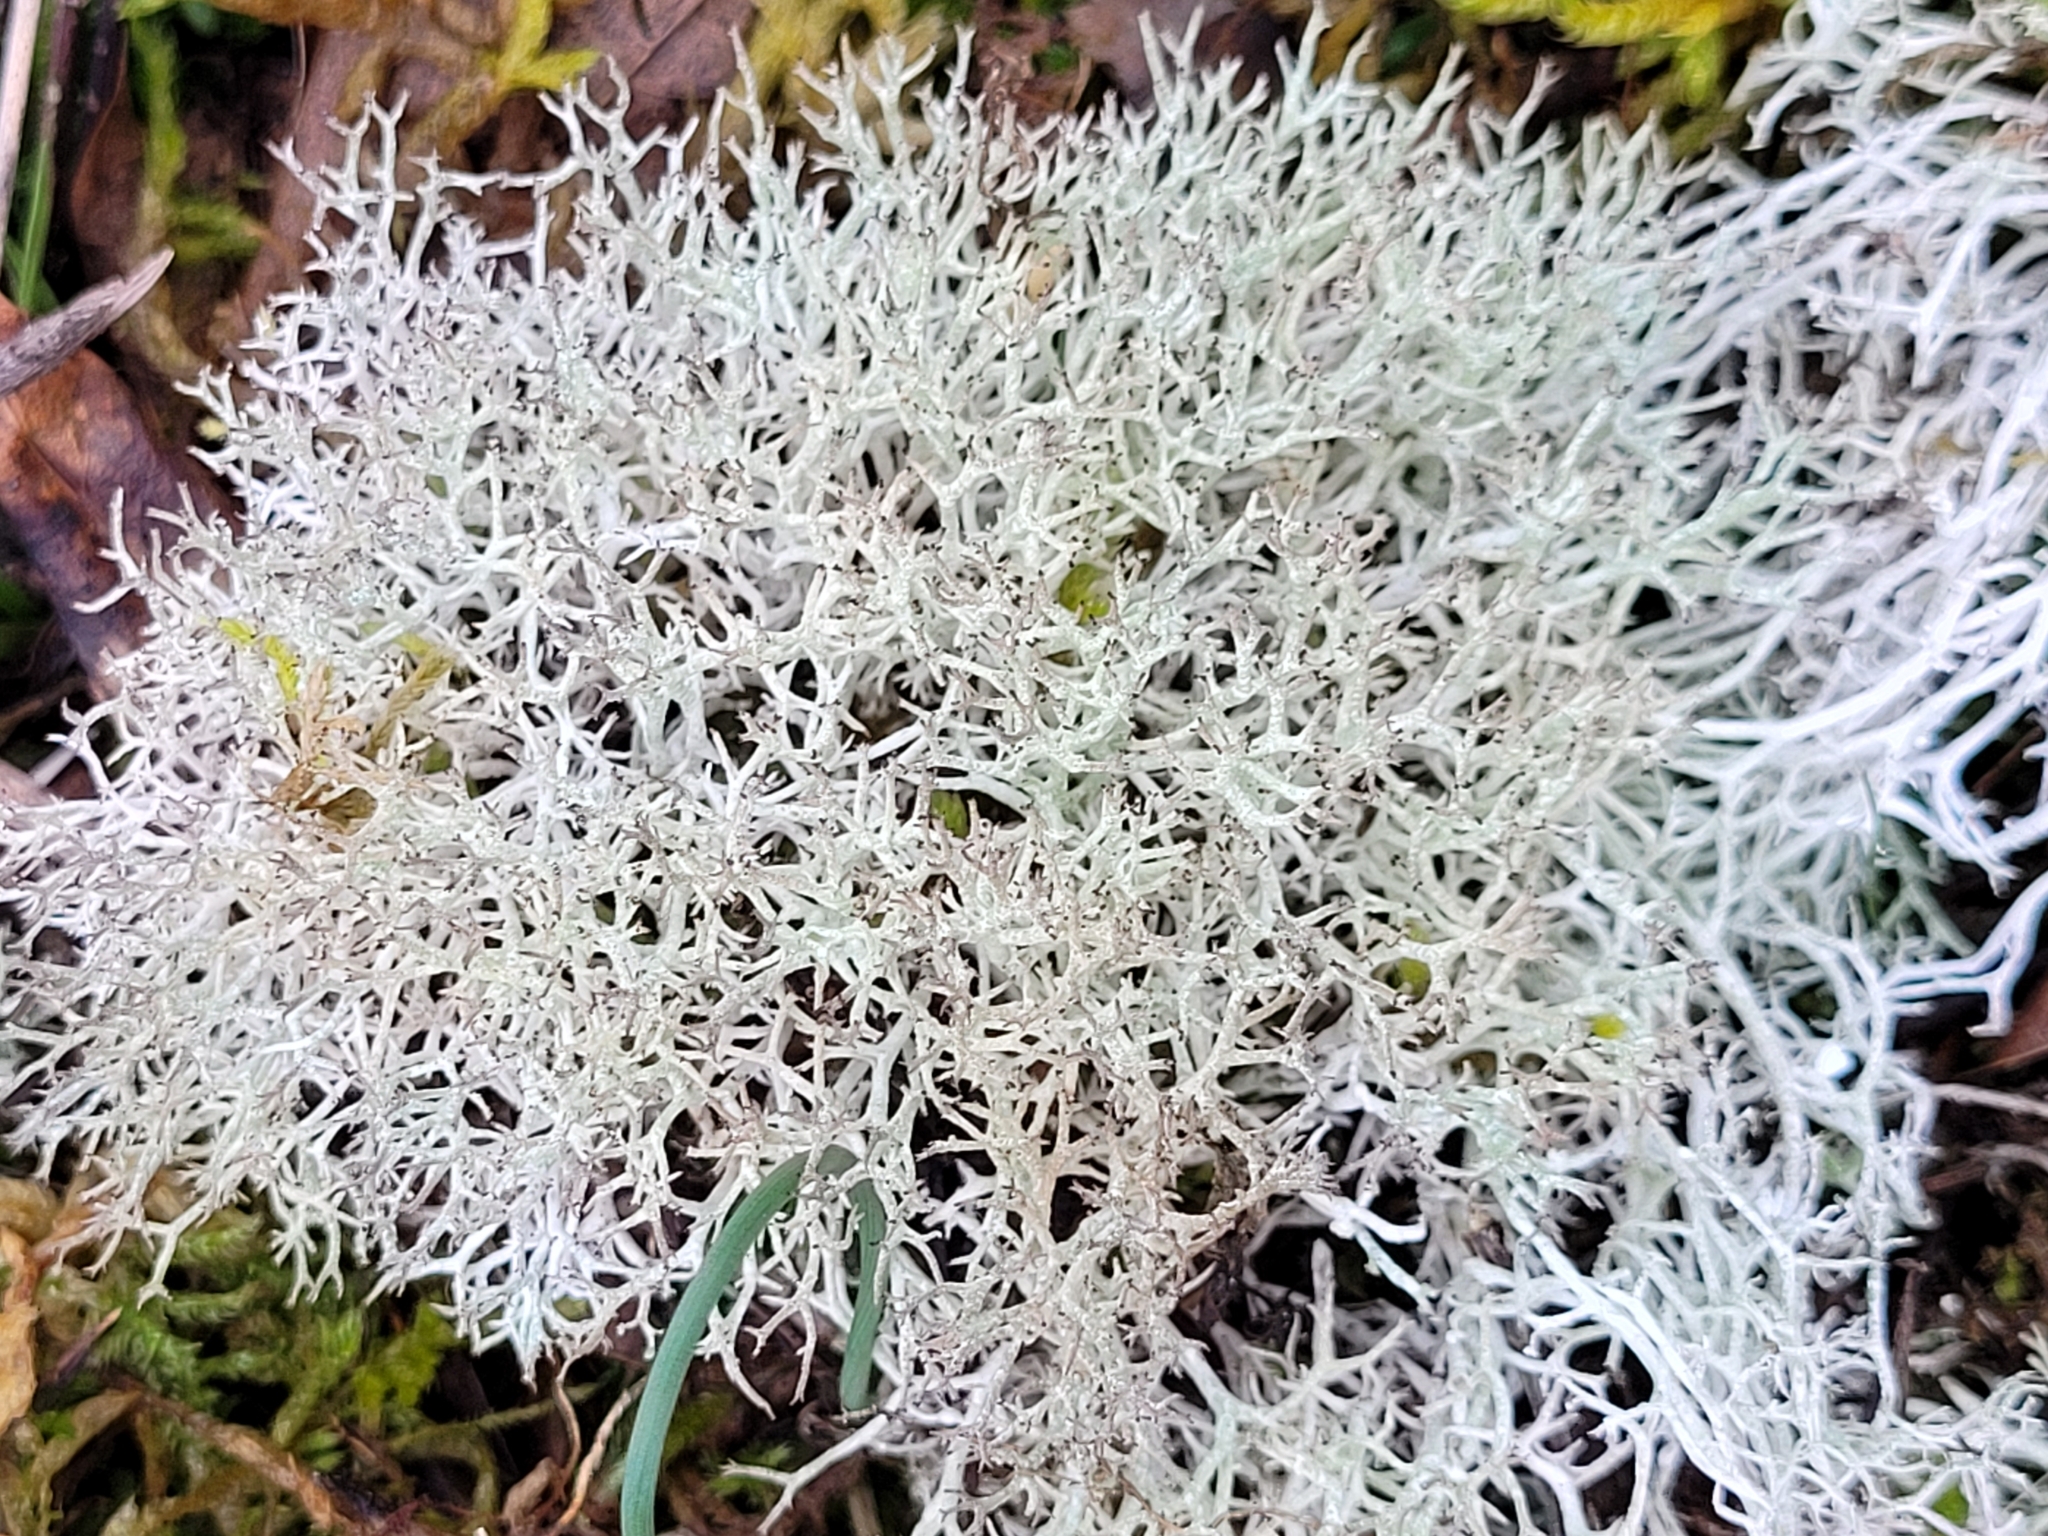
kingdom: Fungi
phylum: Ascomycota
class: Lecanoromycetes
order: Lecanorales
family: Cladoniaceae
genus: Cladonia
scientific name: Cladonia rangiformis
